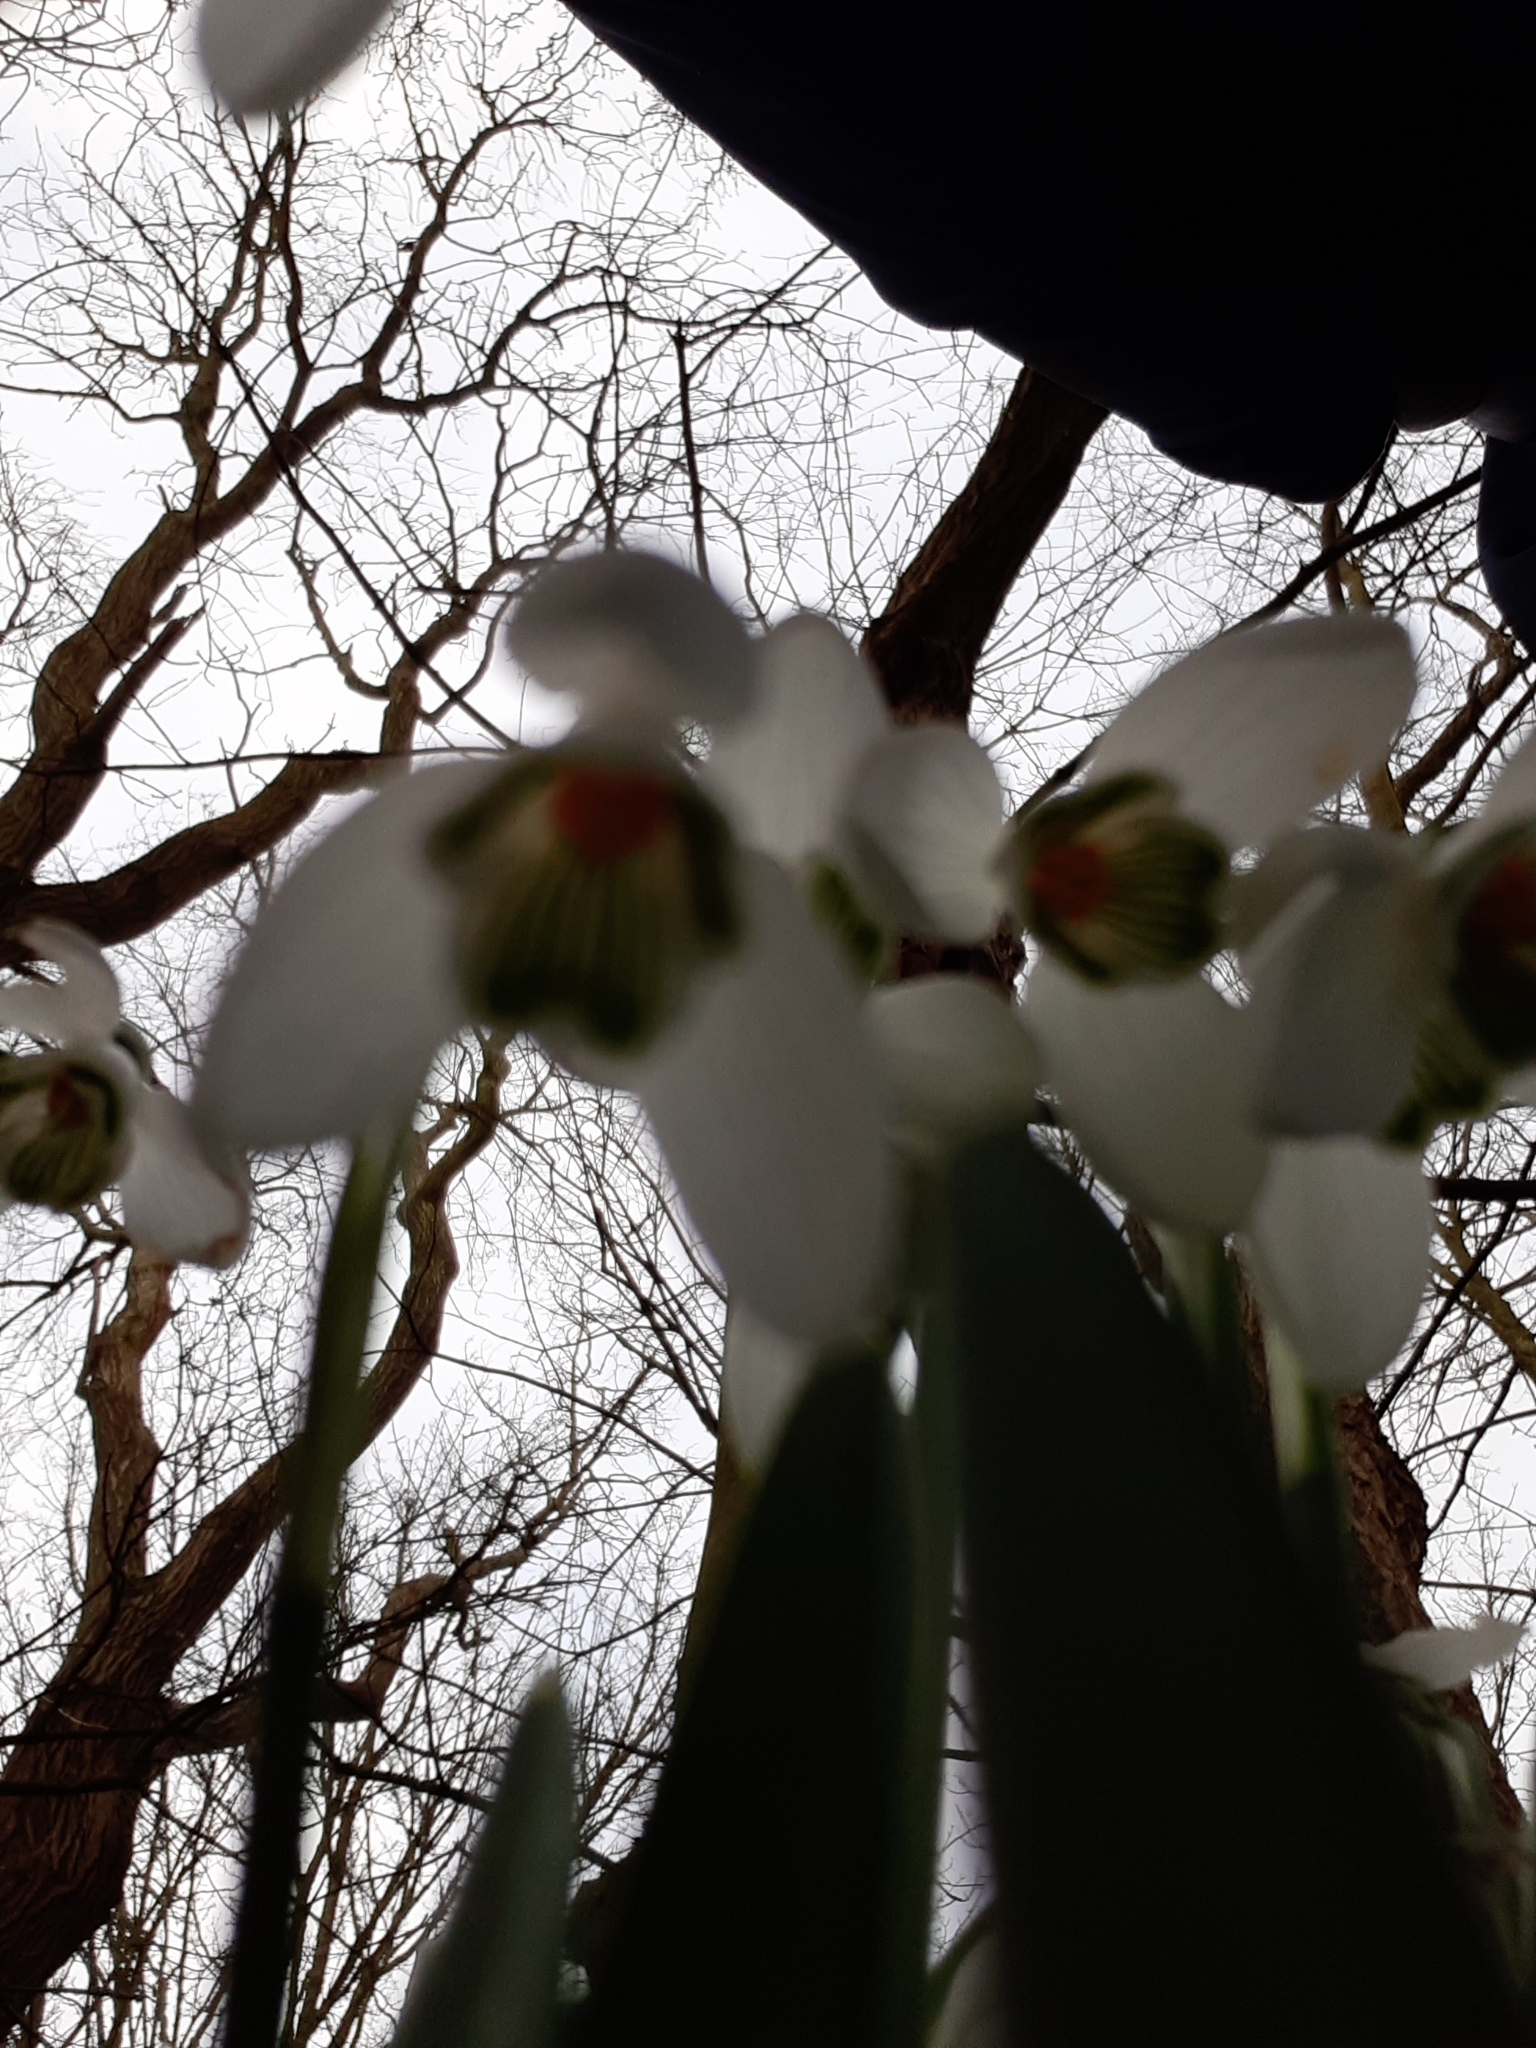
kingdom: Plantae
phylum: Tracheophyta
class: Liliopsida
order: Asparagales
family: Amaryllidaceae
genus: Galanthus
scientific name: Galanthus nivalis
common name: Snowdrop
